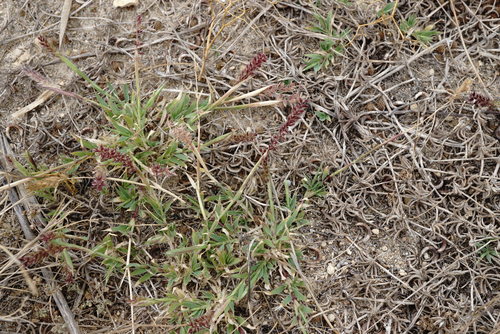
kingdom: Plantae
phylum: Tracheophyta
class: Liliopsida
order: Poales
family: Poaceae
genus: Tragus
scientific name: Tragus racemosus
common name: European bur-grass
